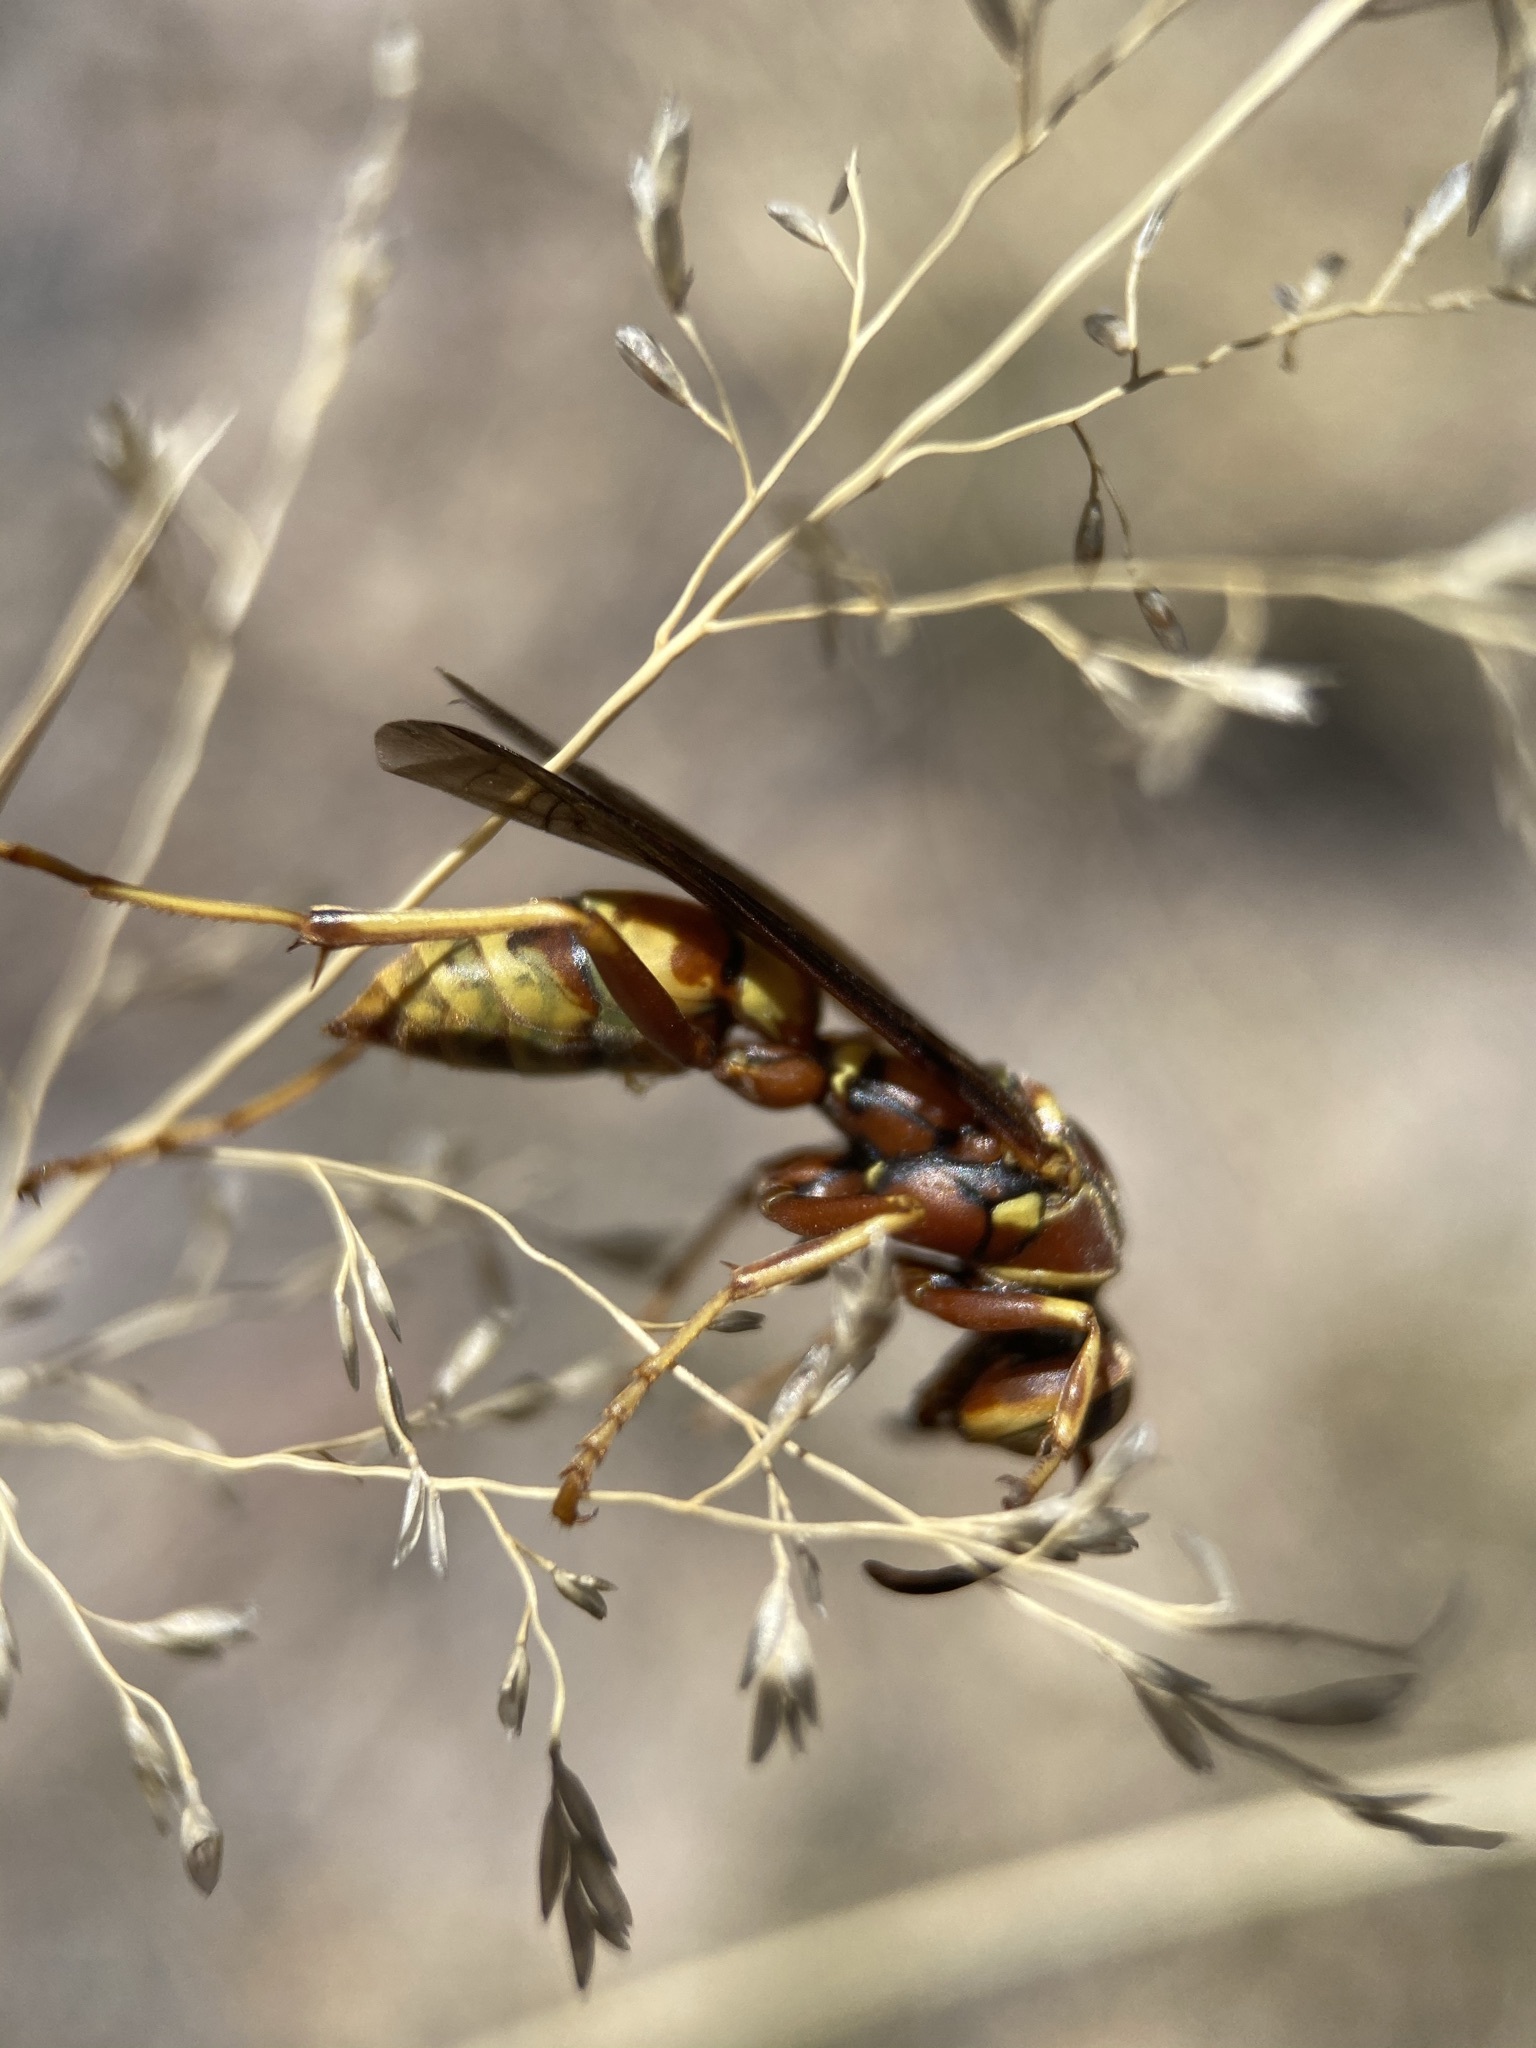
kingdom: Animalia
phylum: Arthropoda
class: Insecta
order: Hymenoptera
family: Eumenidae
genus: Polistes
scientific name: Polistes
